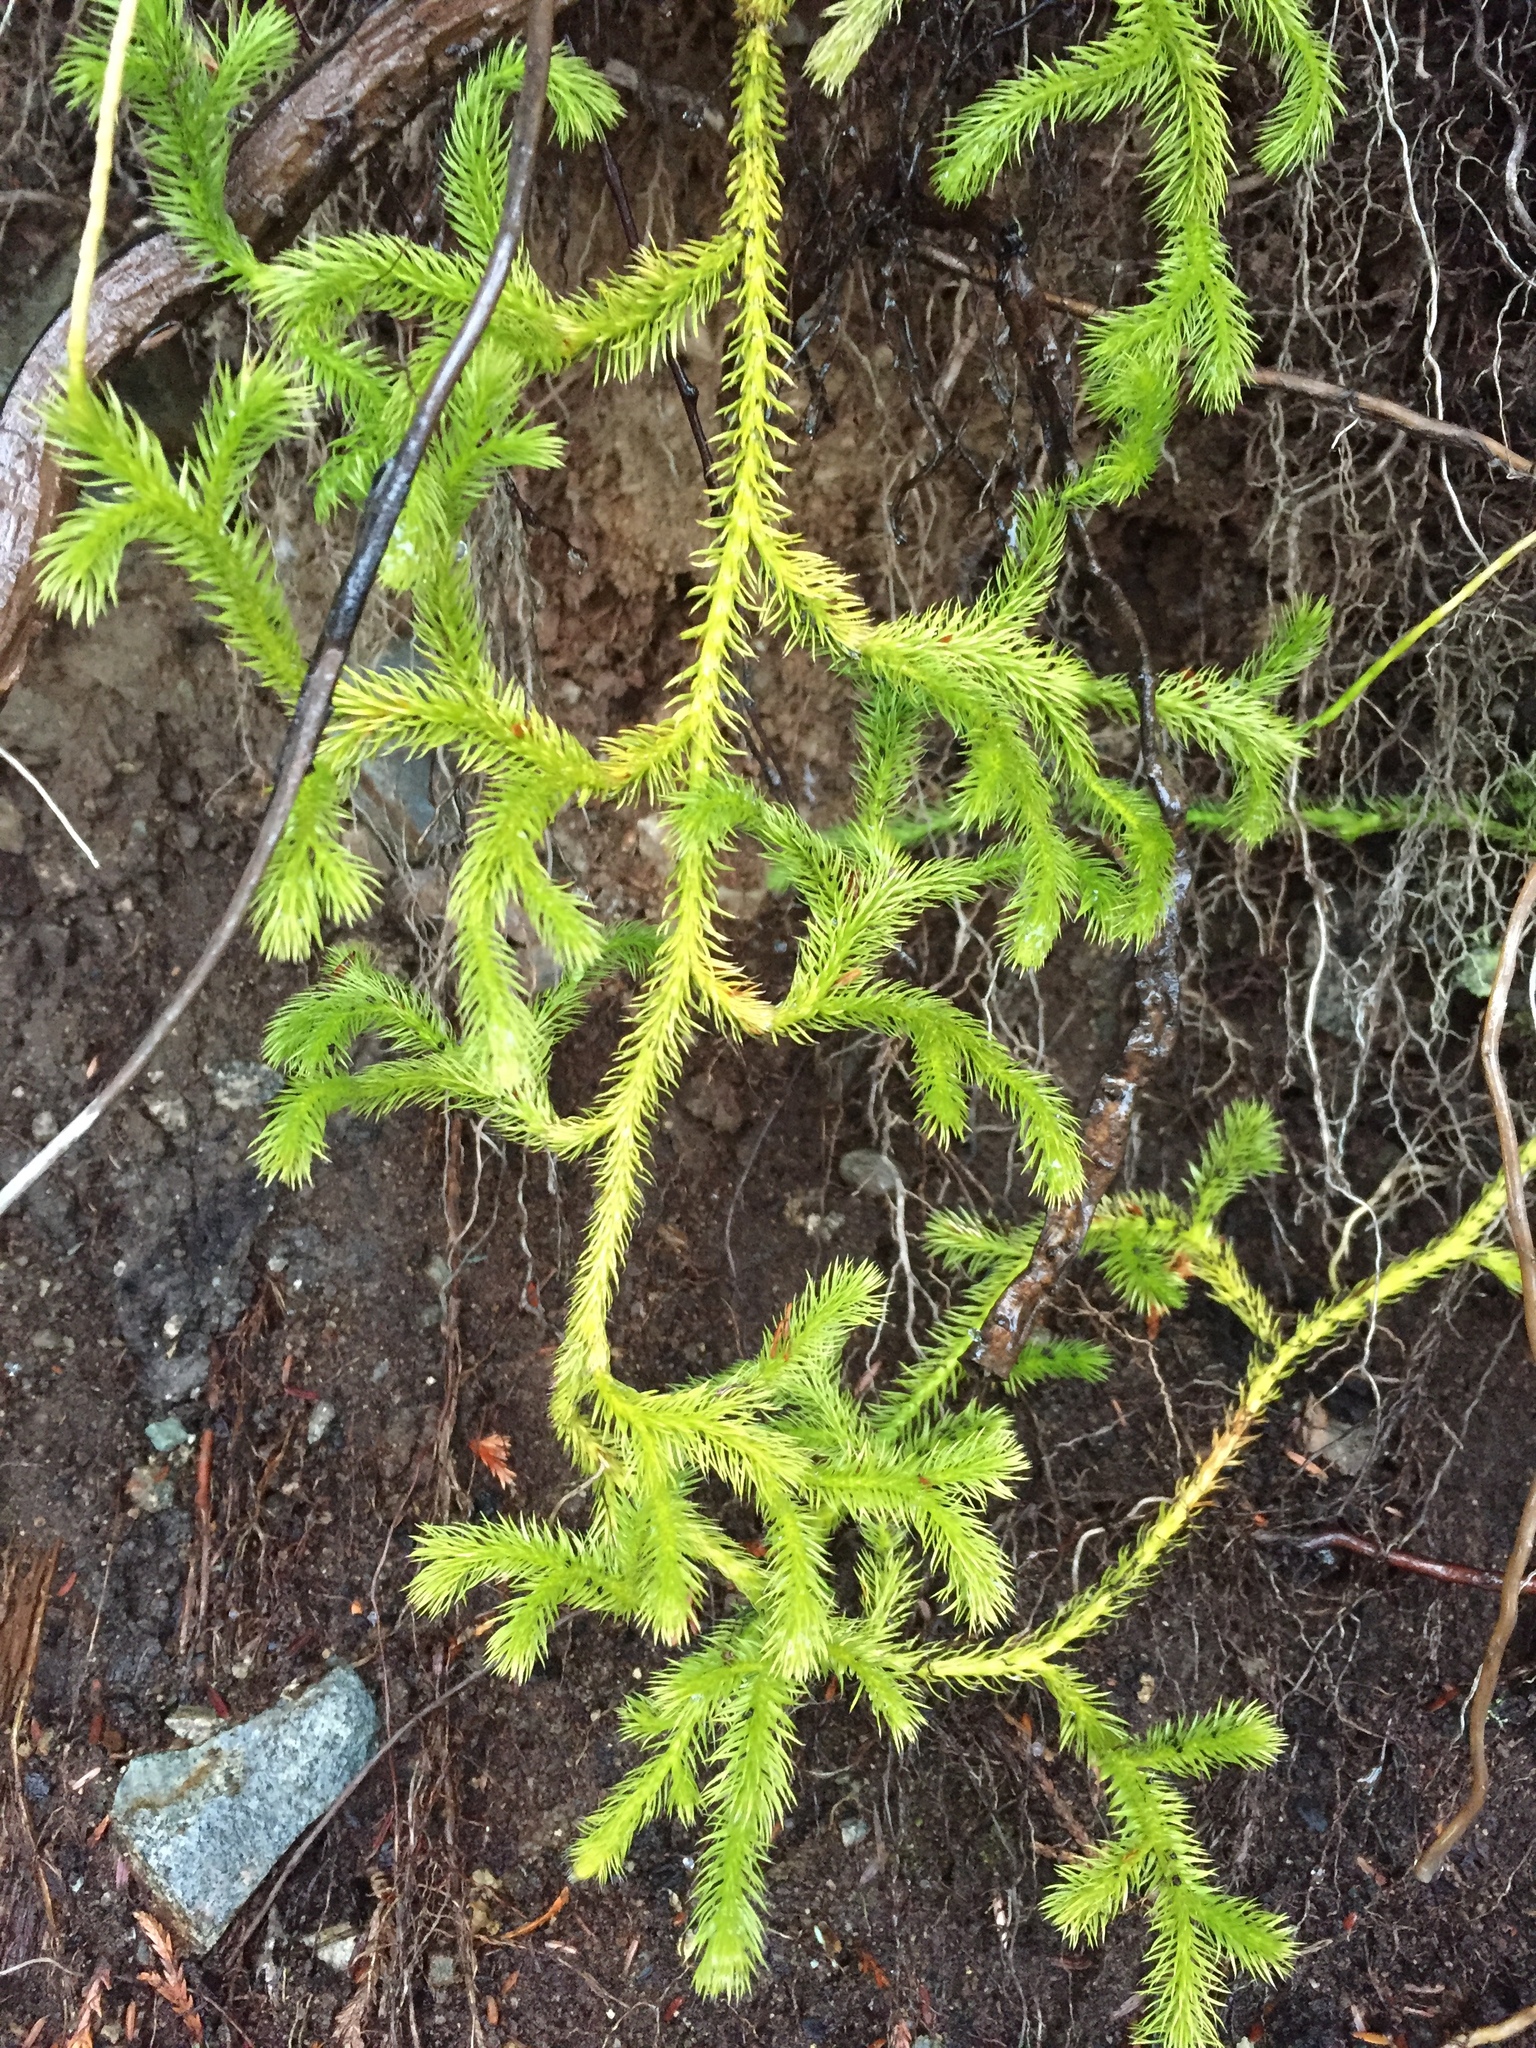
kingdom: Plantae
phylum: Tracheophyta
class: Lycopodiopsida
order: Lycopodiales
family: Lycopodiaceae
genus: Lycopodium
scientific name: Lycopodium clavatum
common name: Stag's-horn clubmoss
